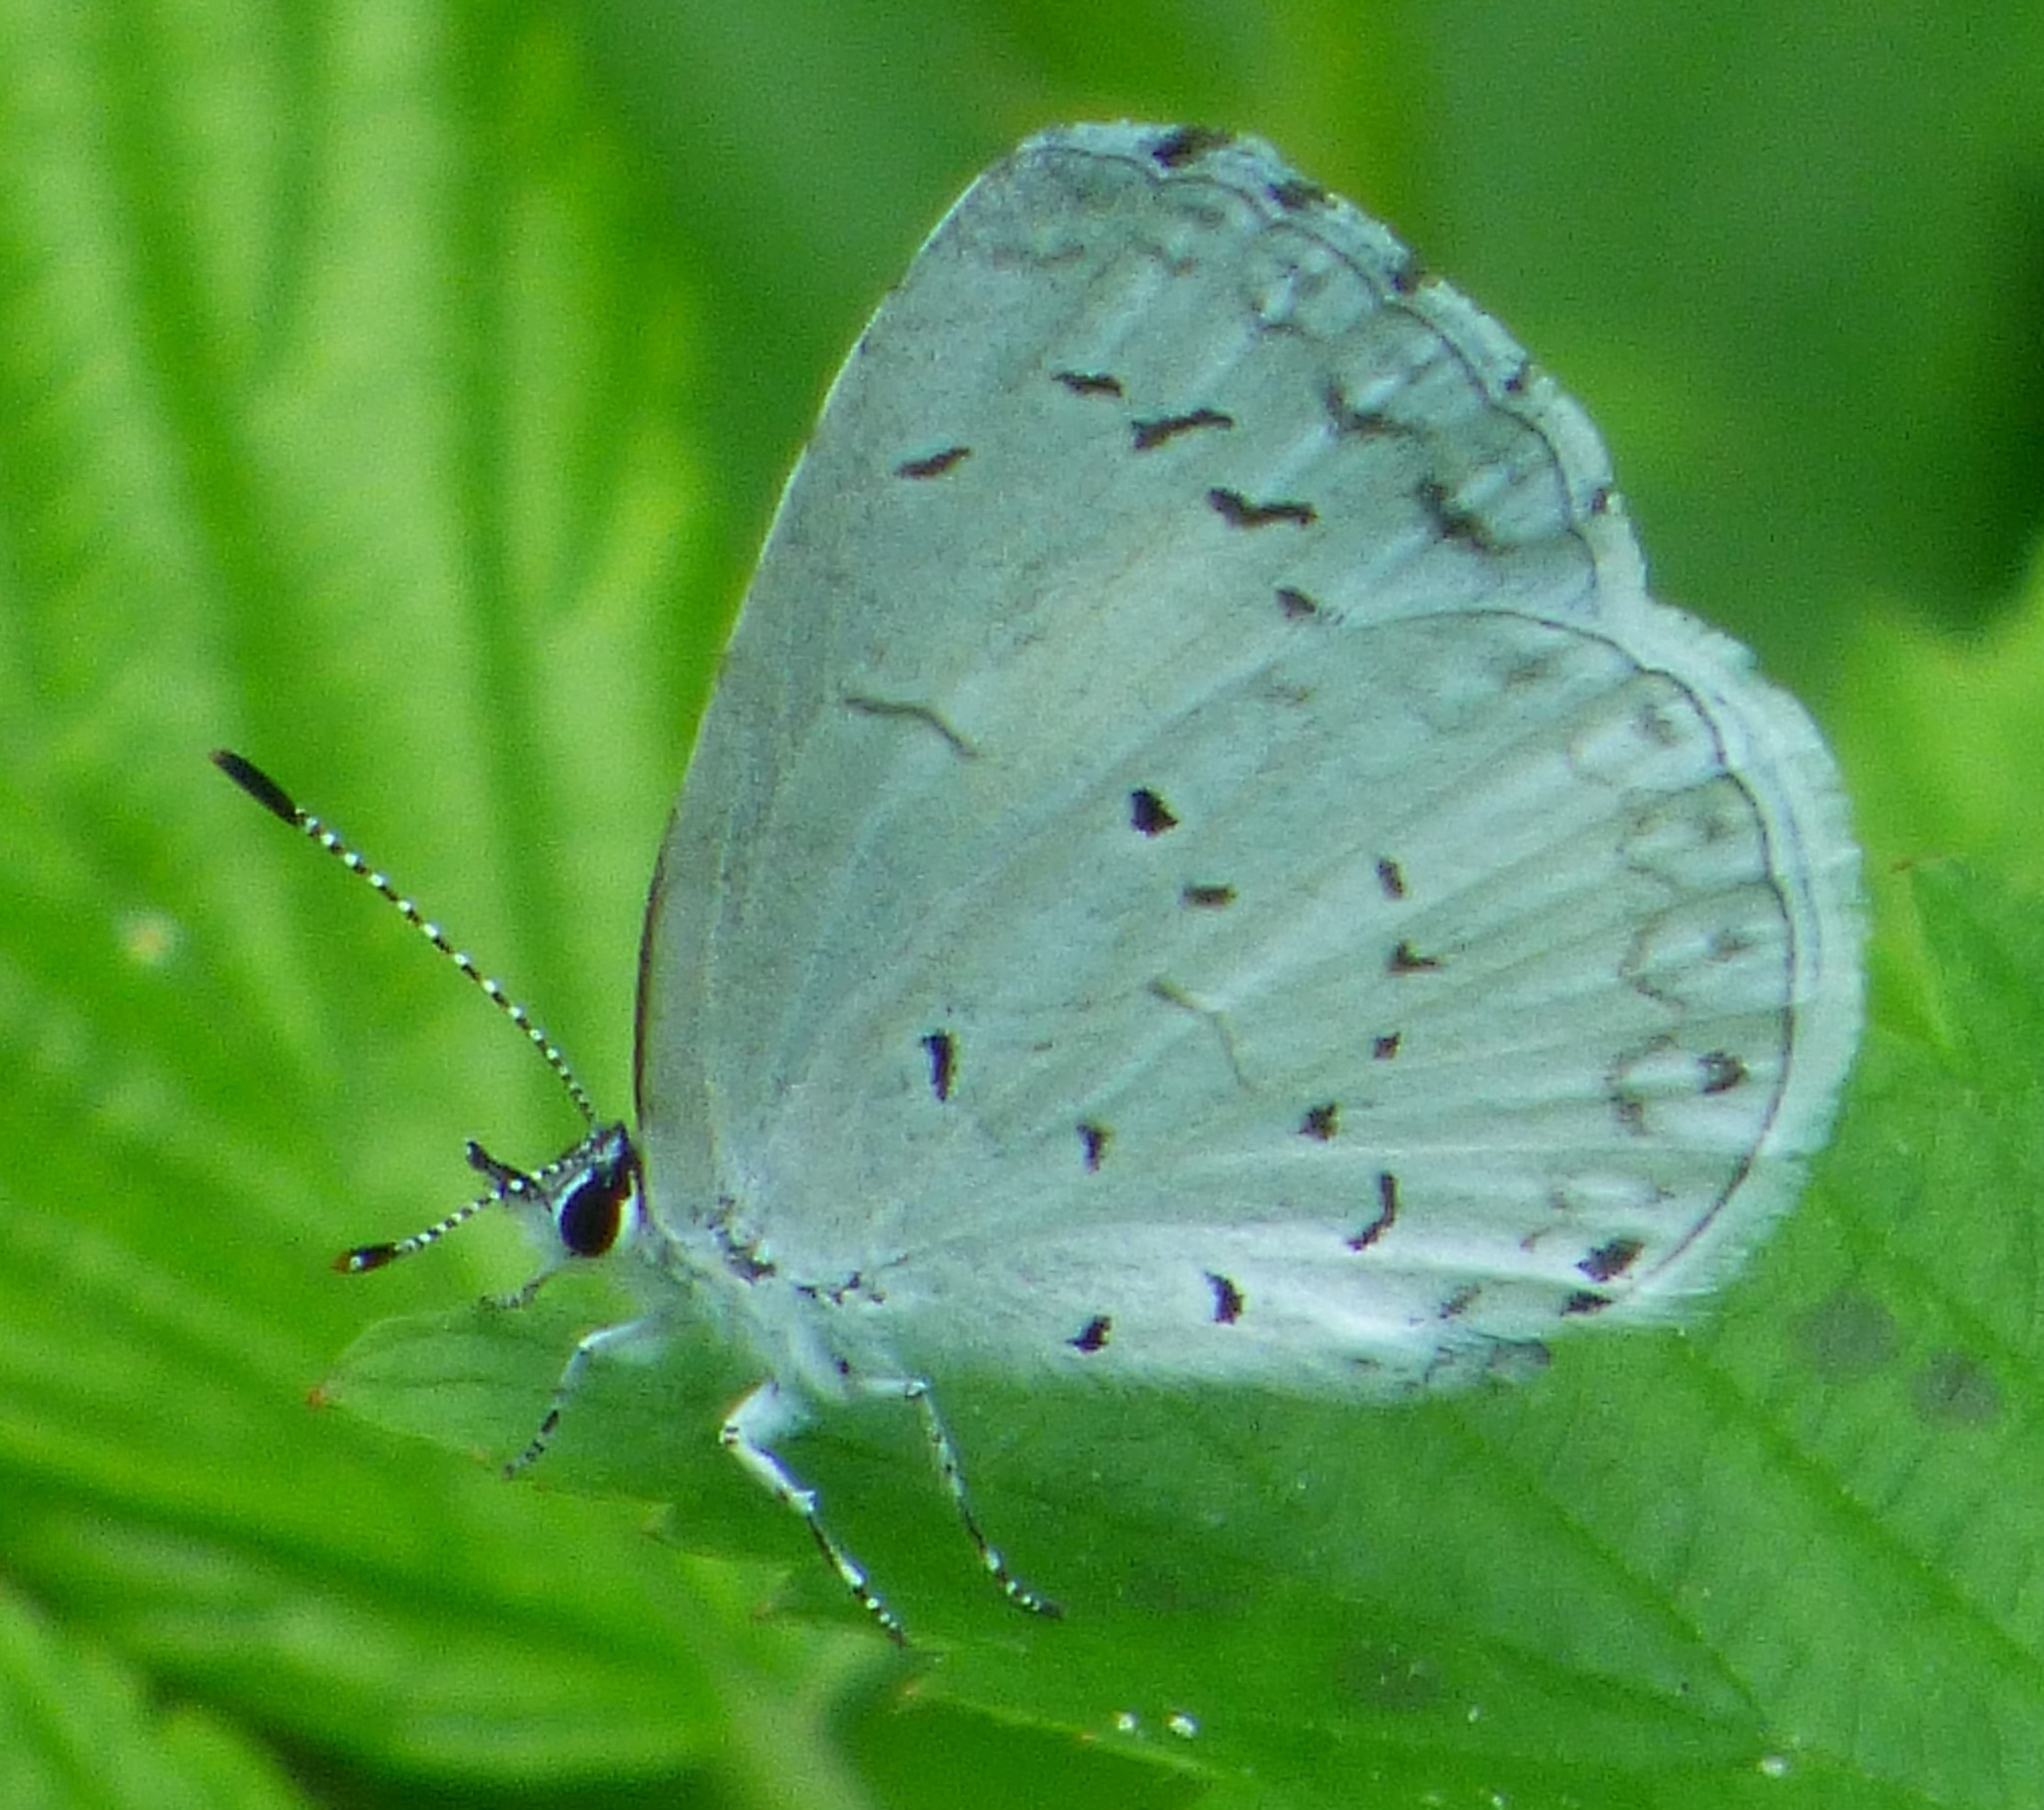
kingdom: Animalia
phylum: Arthropoda
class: Insecta
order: Lepidoptera
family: Lycaenidae
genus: Cyaniris
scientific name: Cyaniris neglecta
